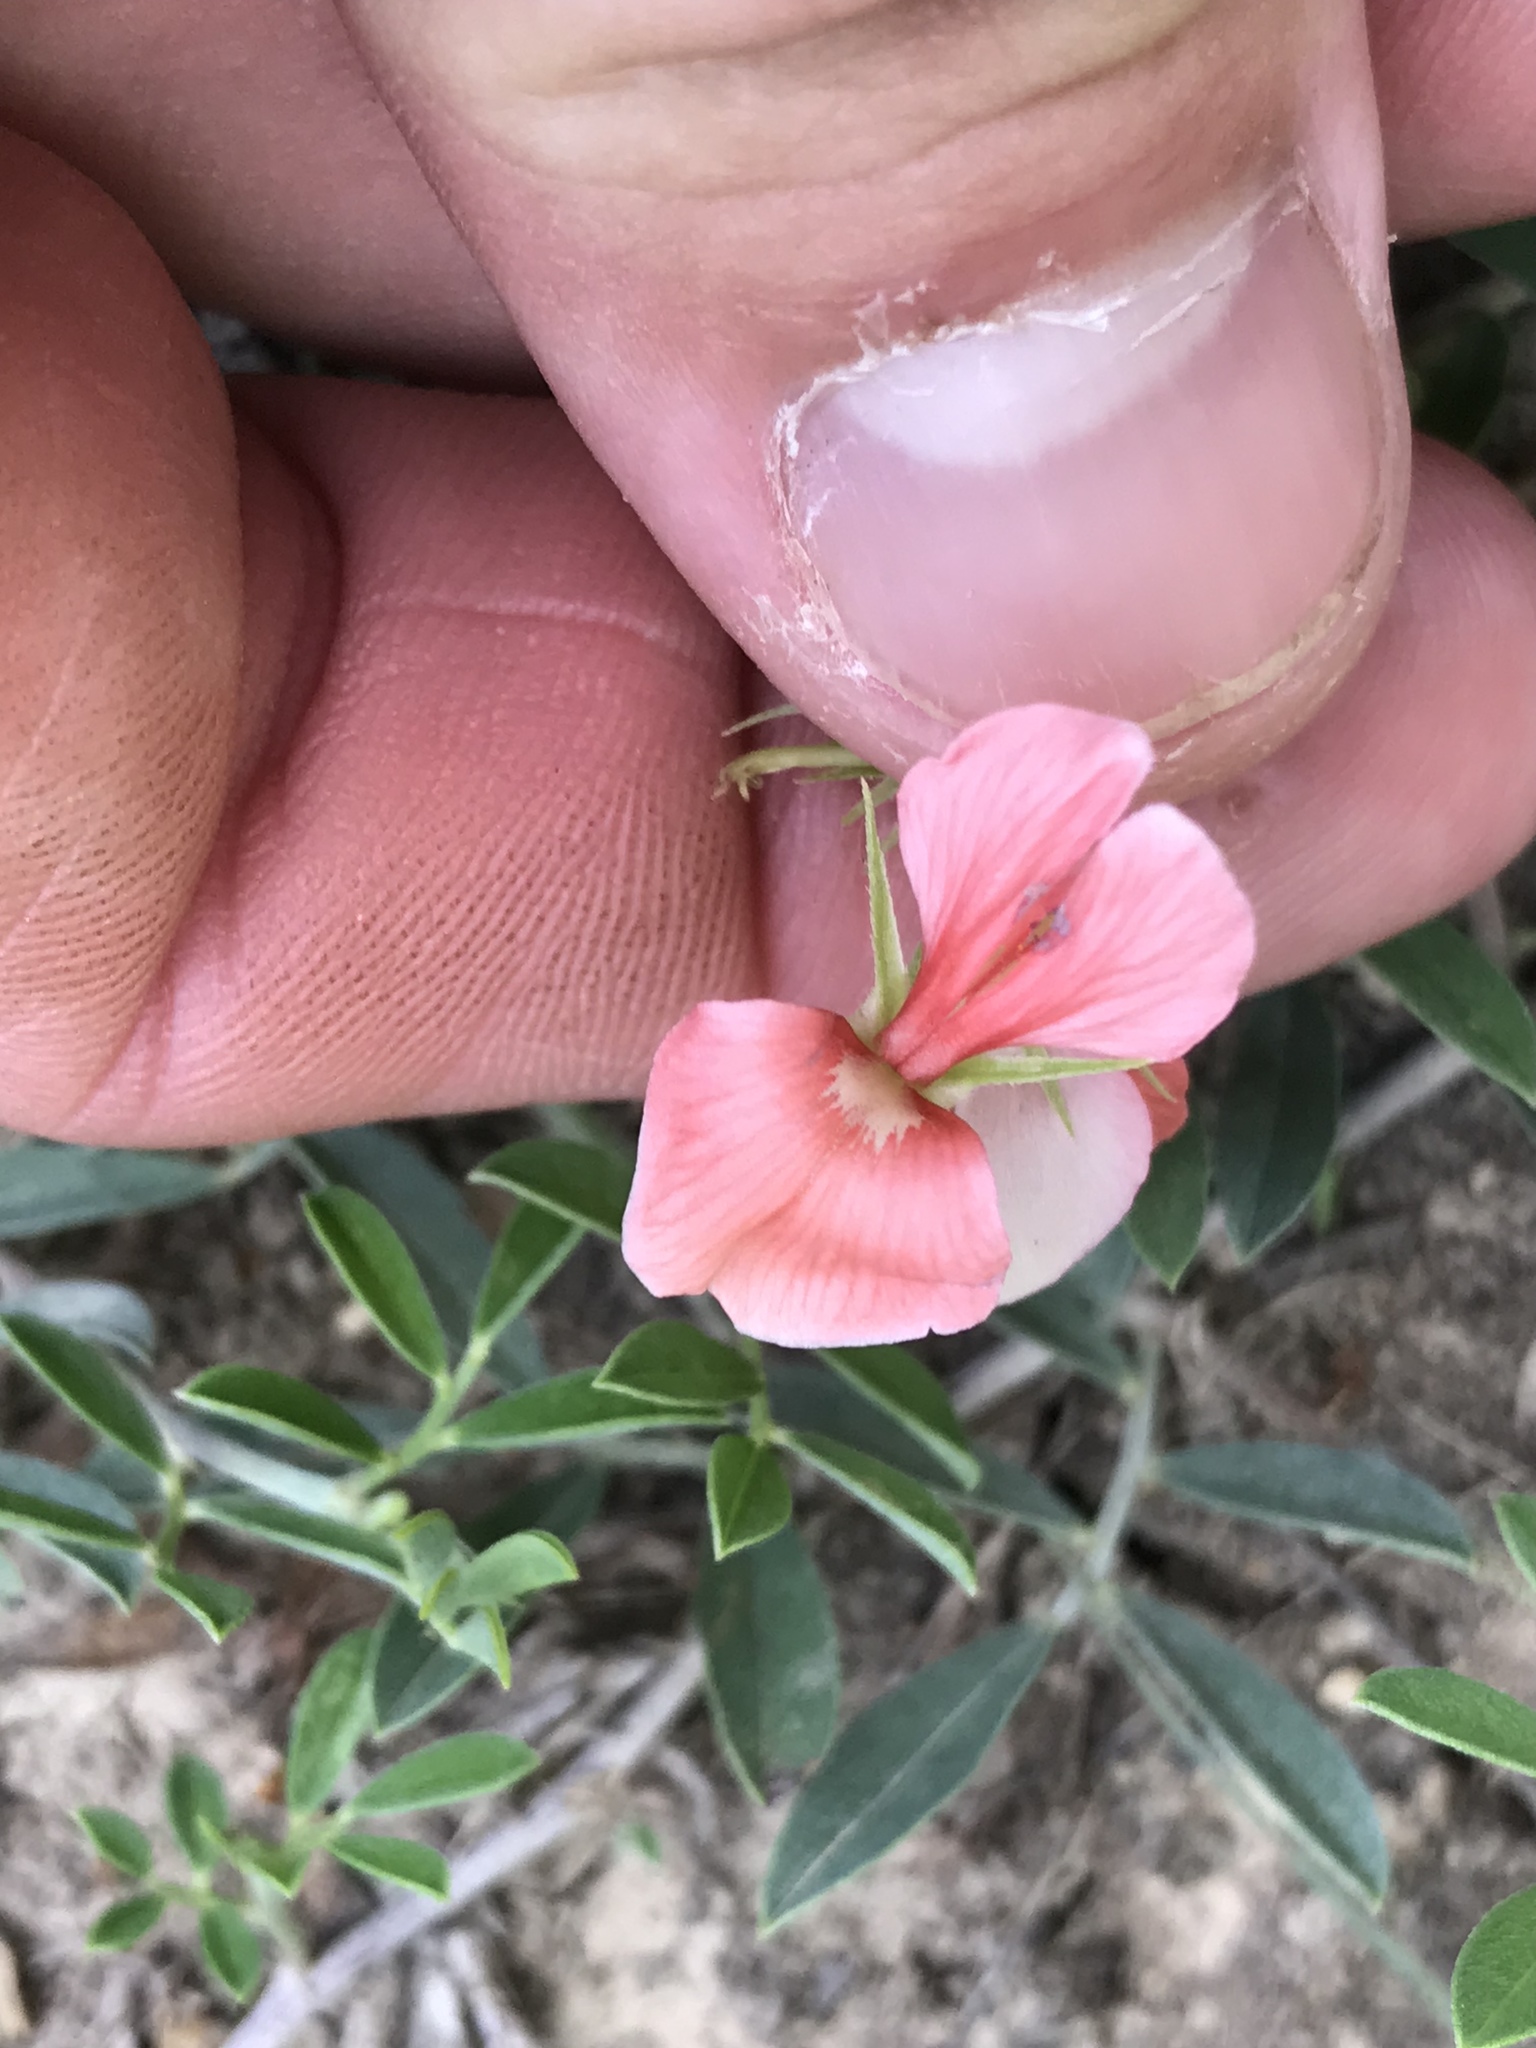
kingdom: Plantae
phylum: Tracheophyta
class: Magnoliopsida
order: Fabales
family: Fabaceae
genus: Indigofera
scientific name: Indigofera miniata
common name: Coast indigo
